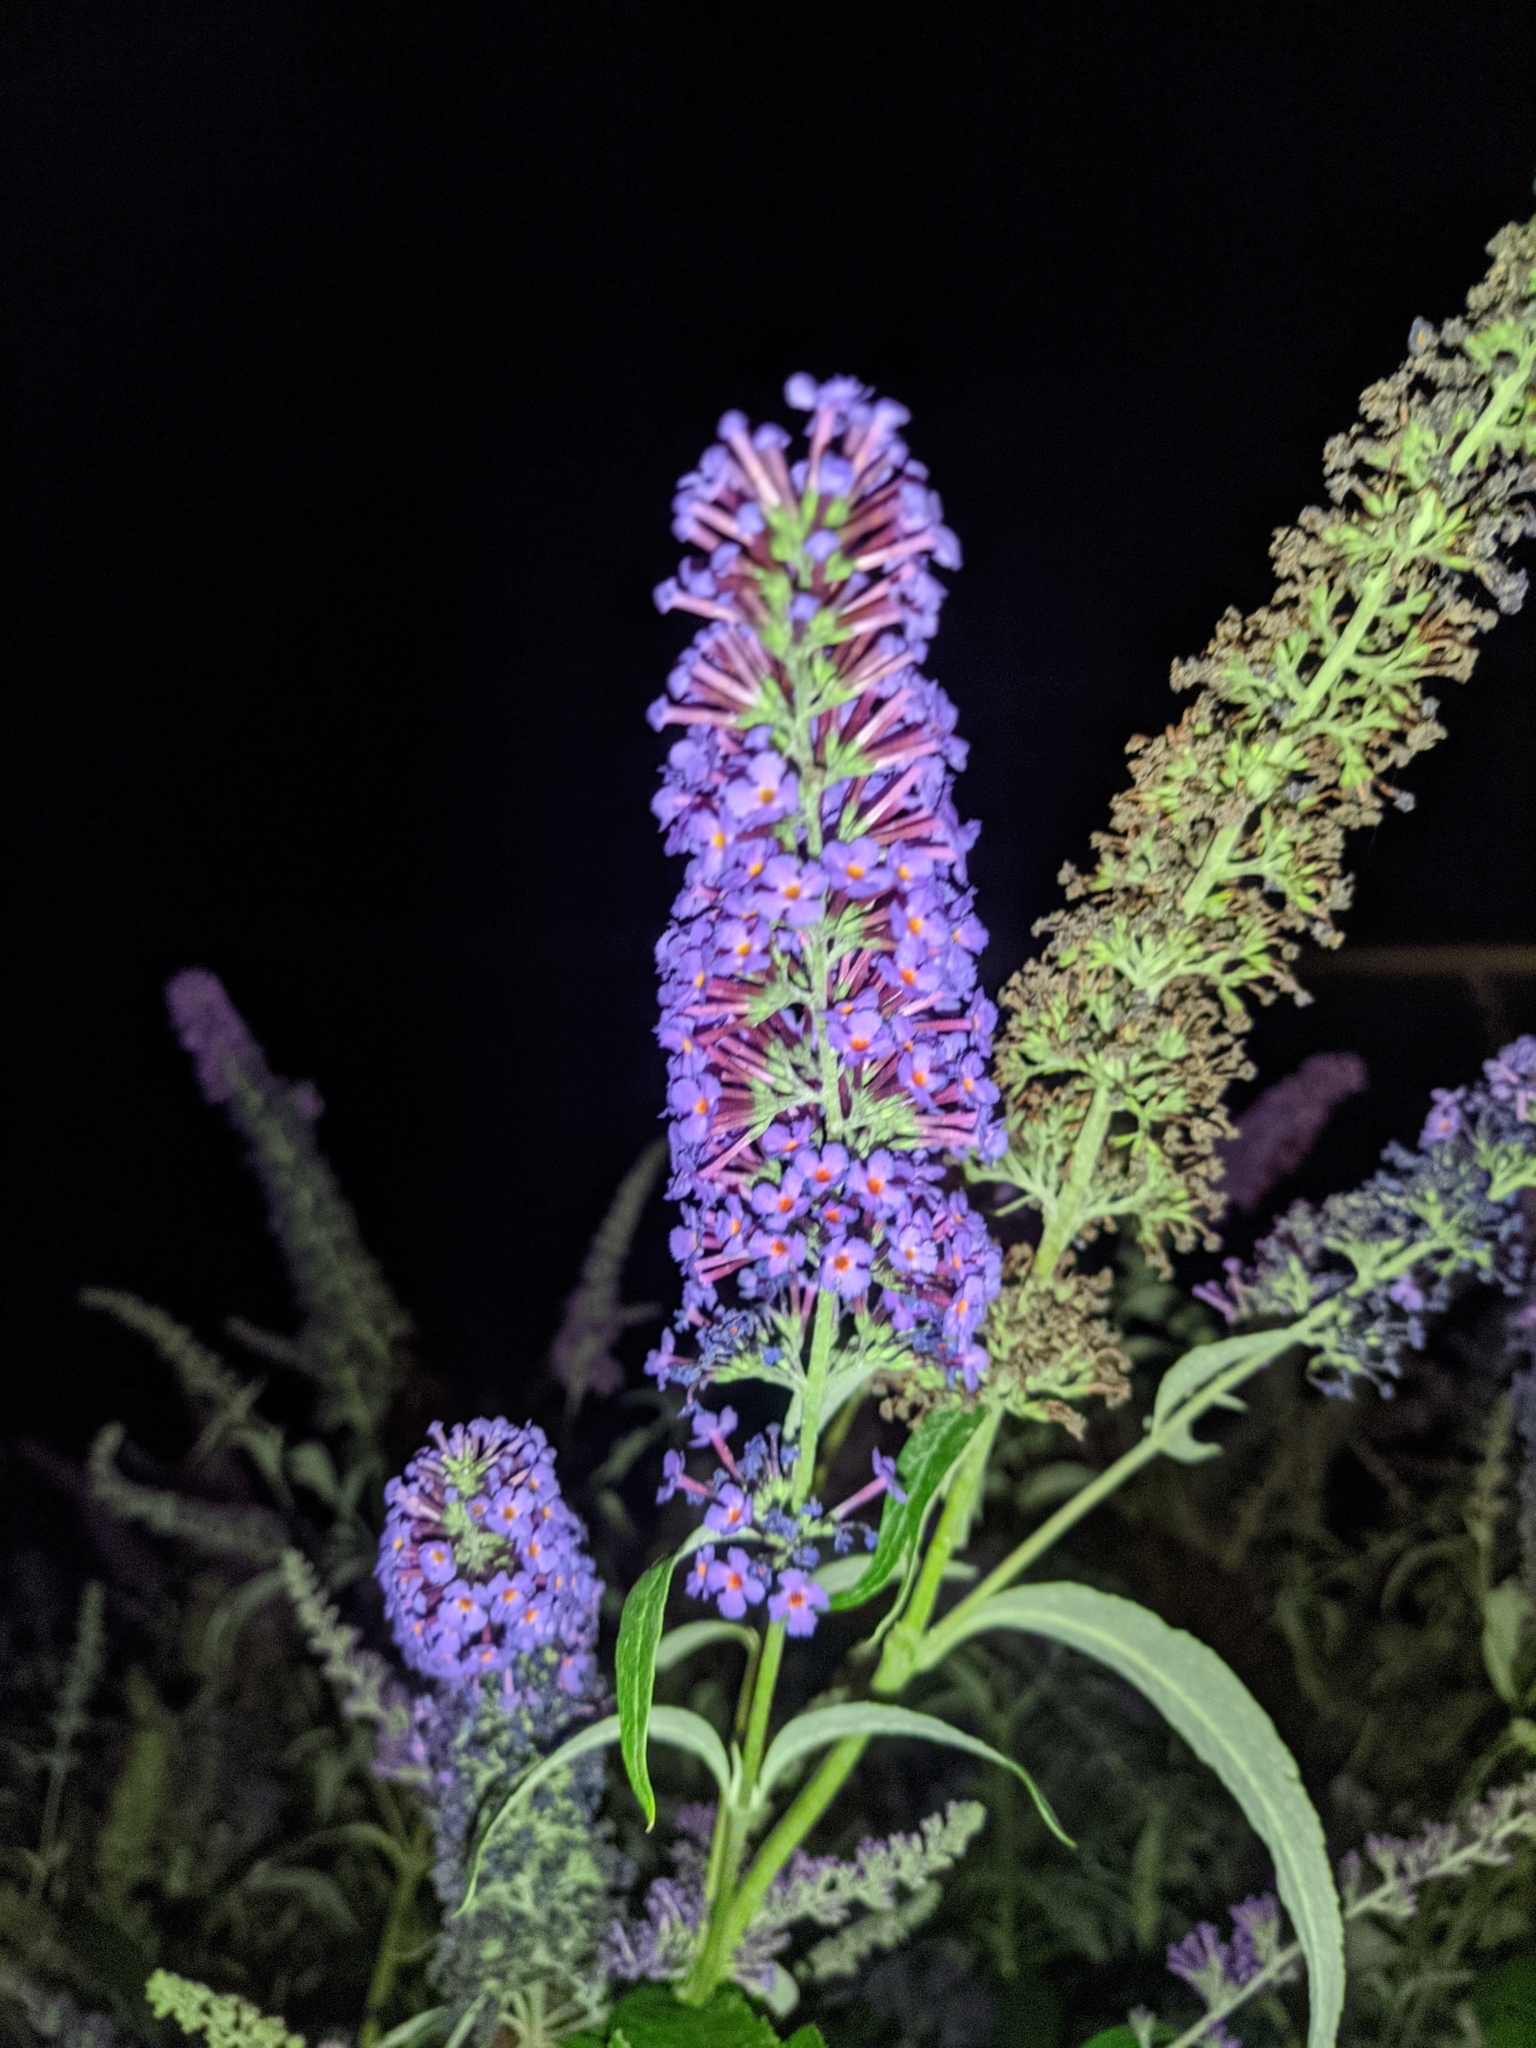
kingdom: Plantae
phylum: Tracheophyta
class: Magnoliopsida
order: Lamiales
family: Scrophulariaceae
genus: Buddleja
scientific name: Buddleja davidii
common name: Butterfly-bush
